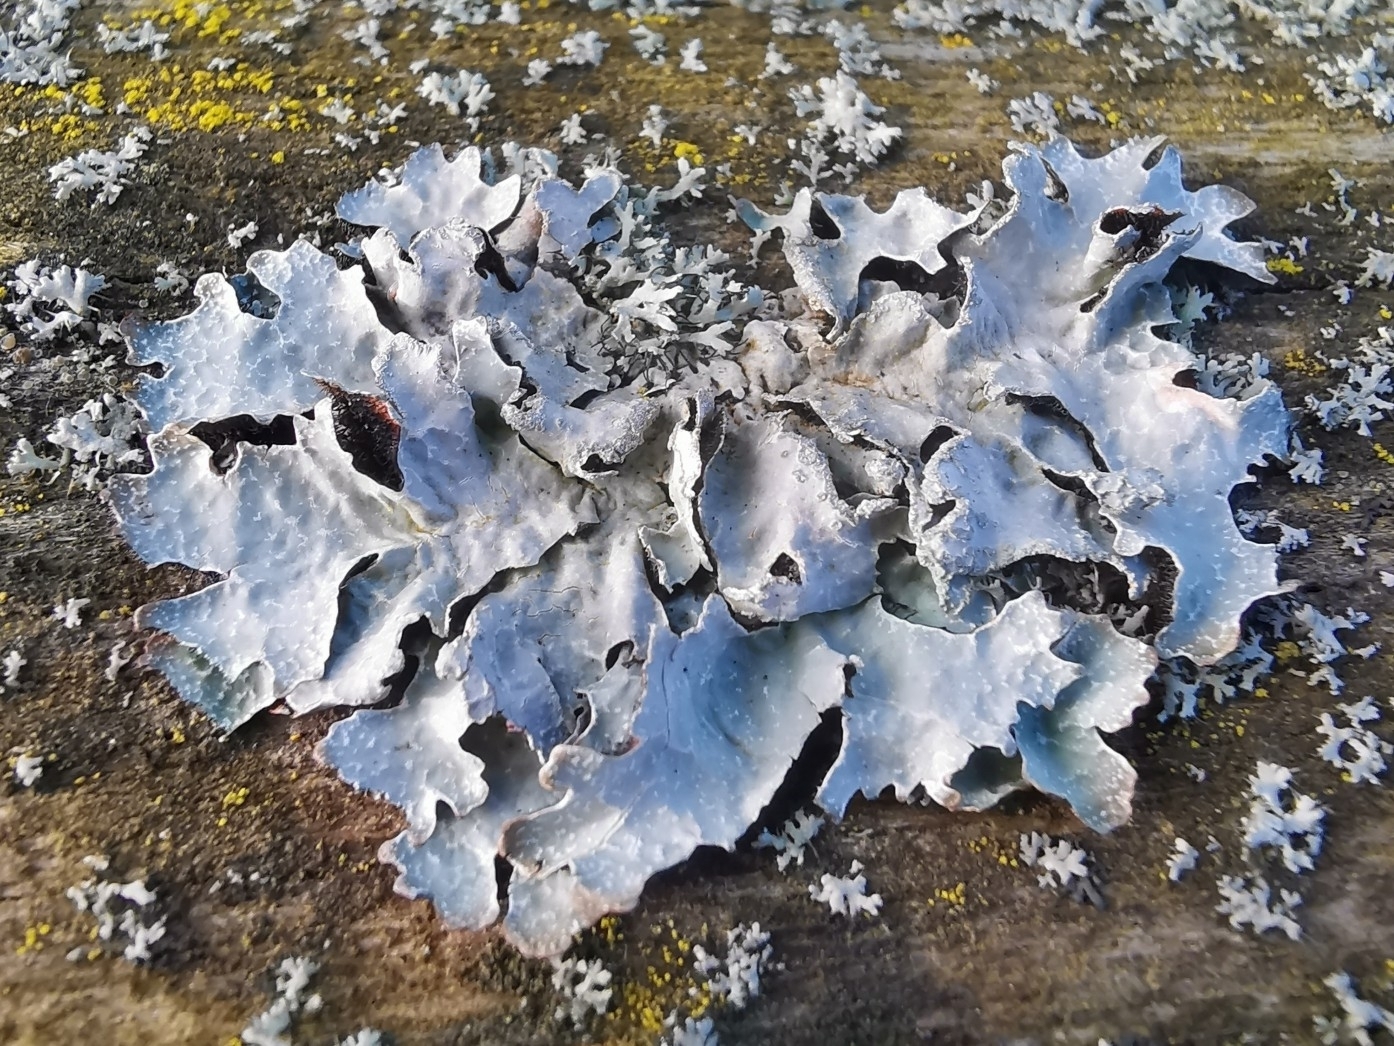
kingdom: Fungi
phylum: Ascomycota
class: Lecanoromycetes
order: Lecanorales
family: Parmeliaceae
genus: Parmelia
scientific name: Parmelia sulcata
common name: Netted shield lichen
